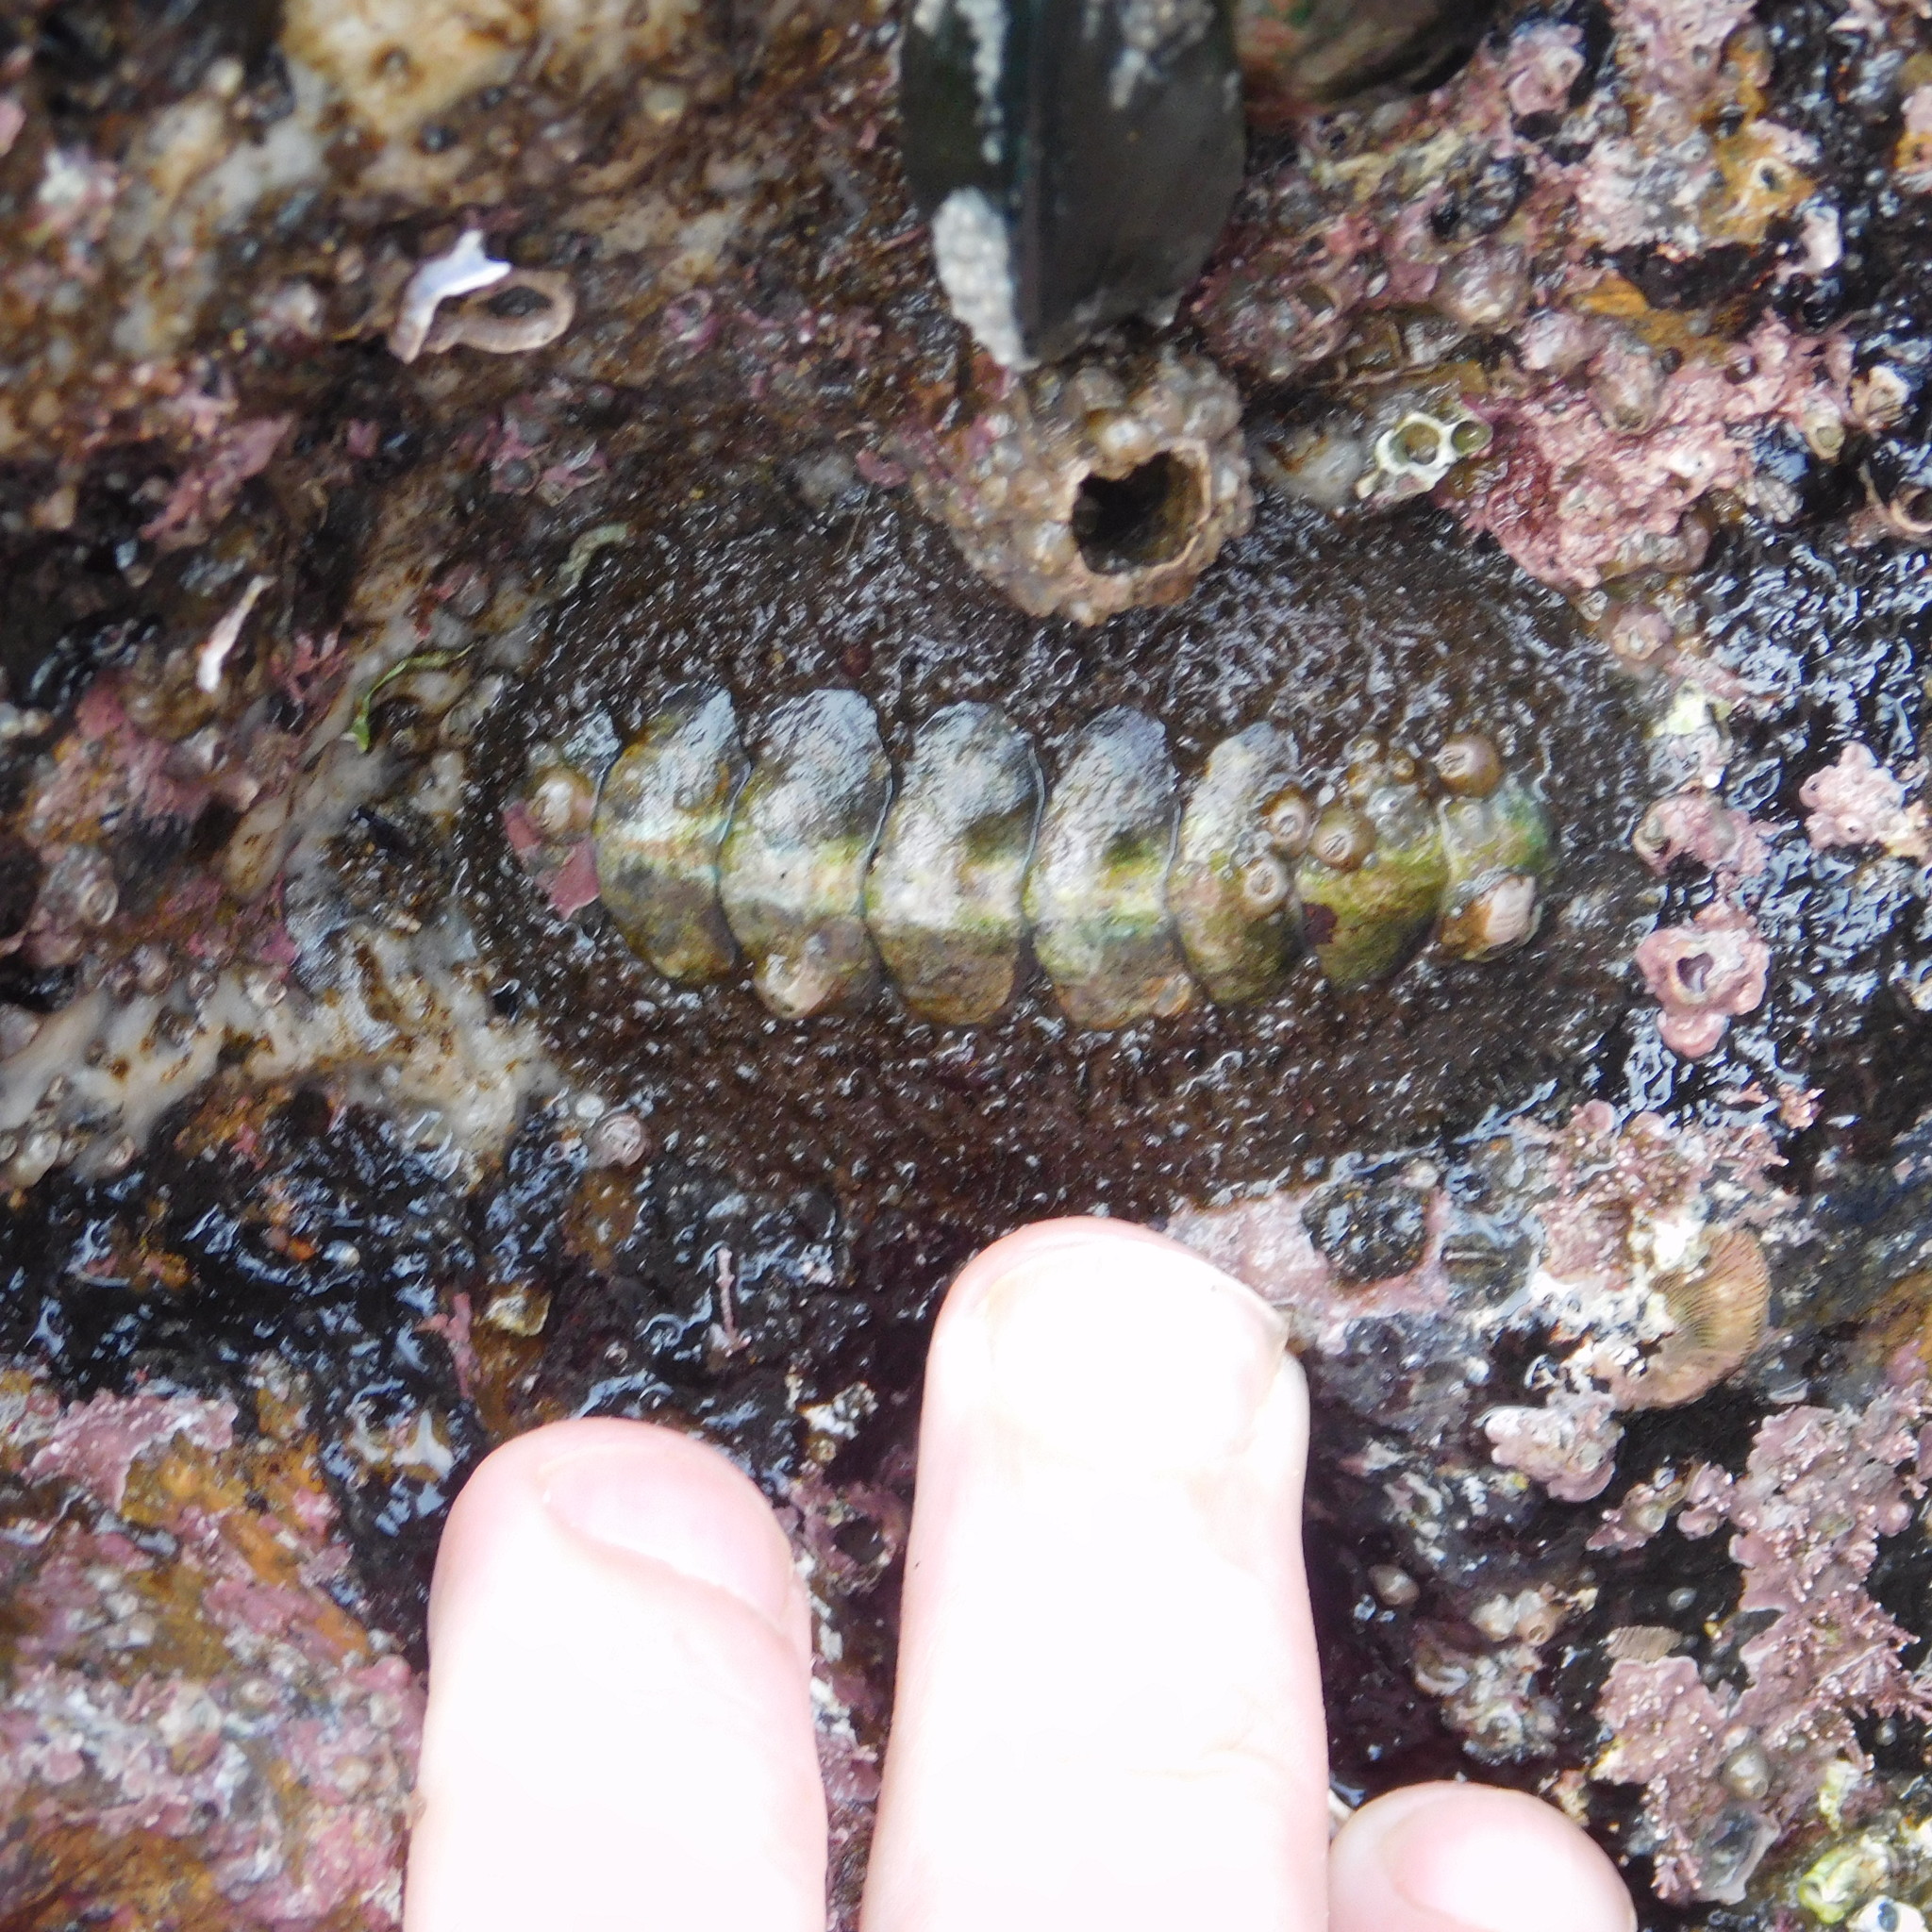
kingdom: Animalia
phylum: Mollusca
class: Polyplacophora
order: Chitonida
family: Mopaliidae
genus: Plaxiphora
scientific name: Plaxiphora obtecta
